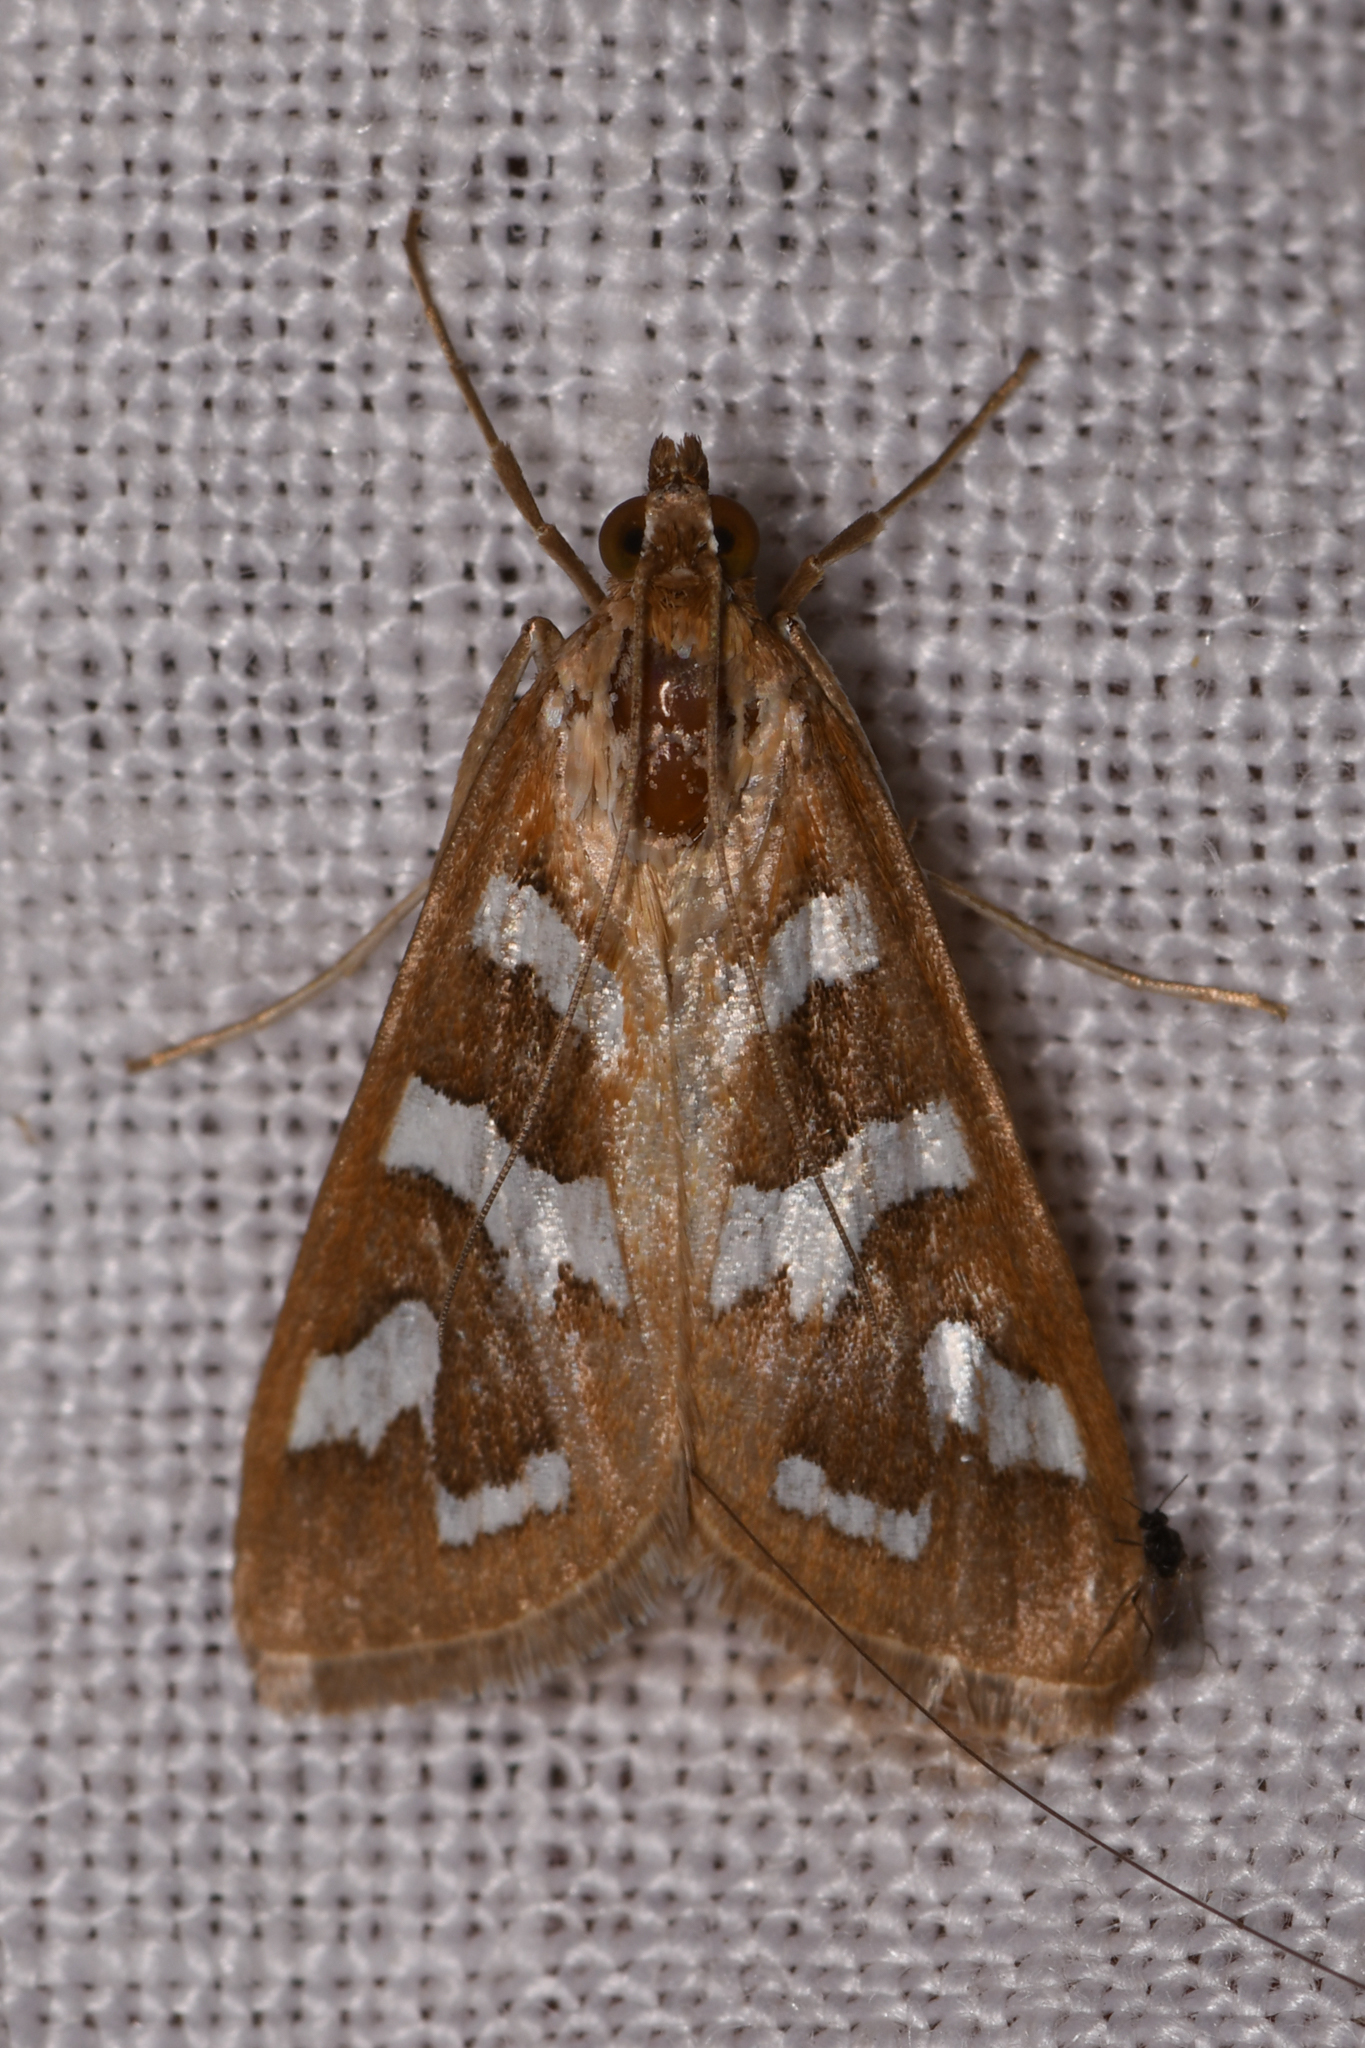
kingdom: Animalia
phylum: Arthropoda
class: Insecta
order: Lepidoptera
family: Crambidae
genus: Diastictis
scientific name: Diastictis fracturalis
